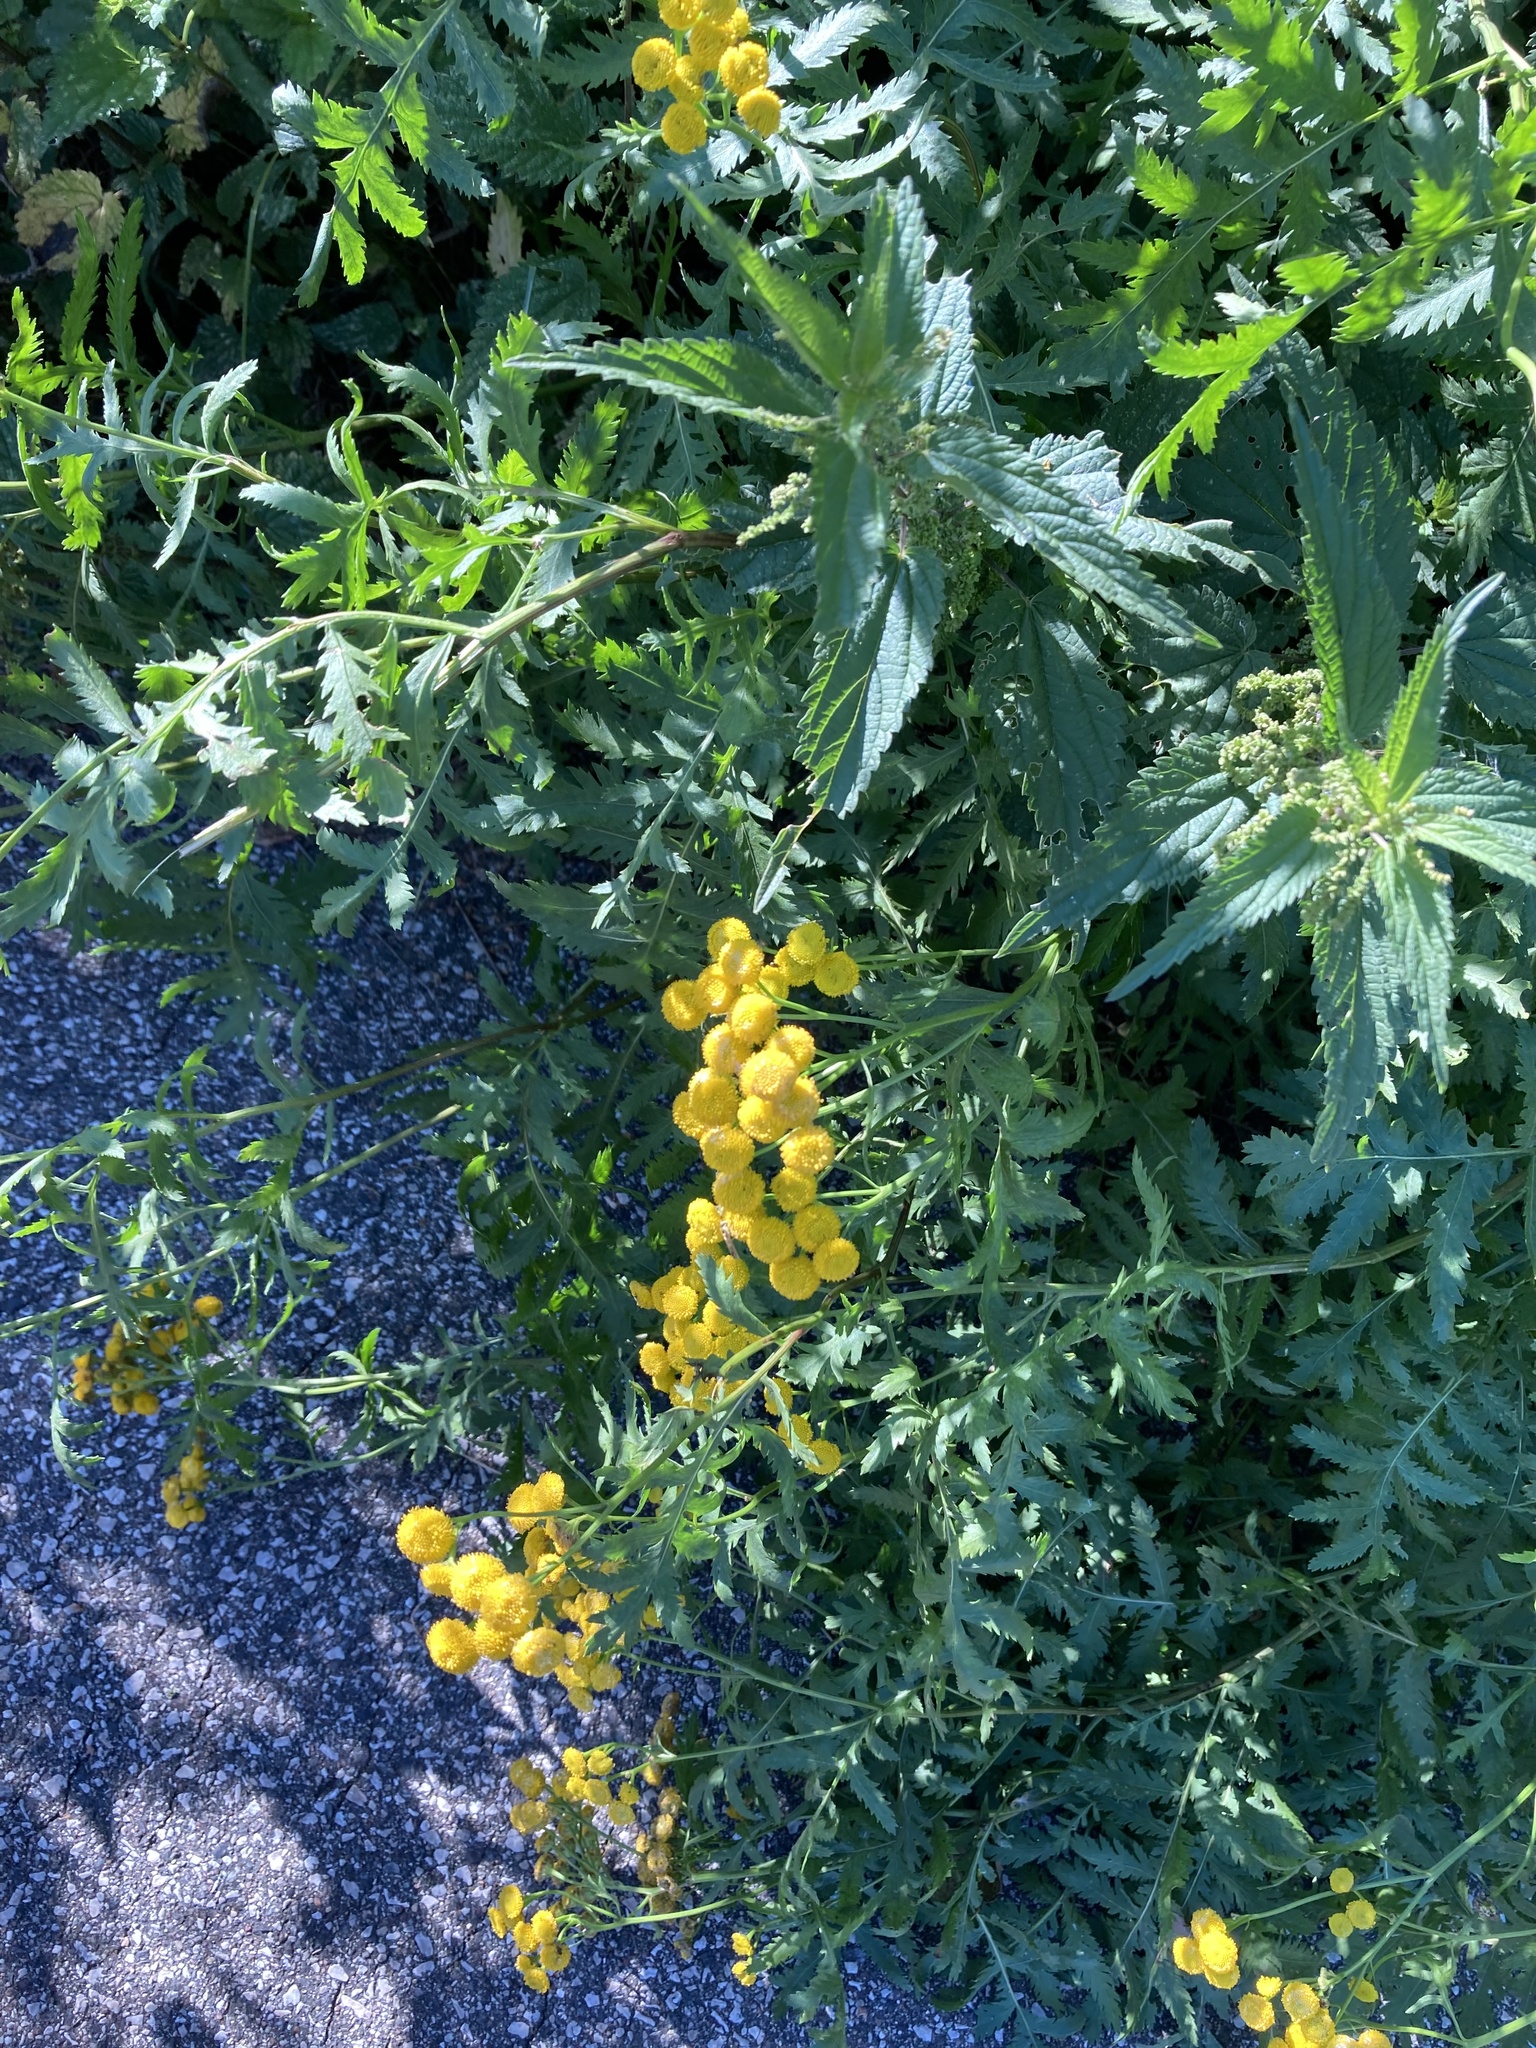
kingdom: Plantae
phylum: Tracheophyta
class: Magnoliopsida
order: Asterales
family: Asteraceae
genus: Tanacetum
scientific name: Tanacetum vulgare
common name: Common tansy
